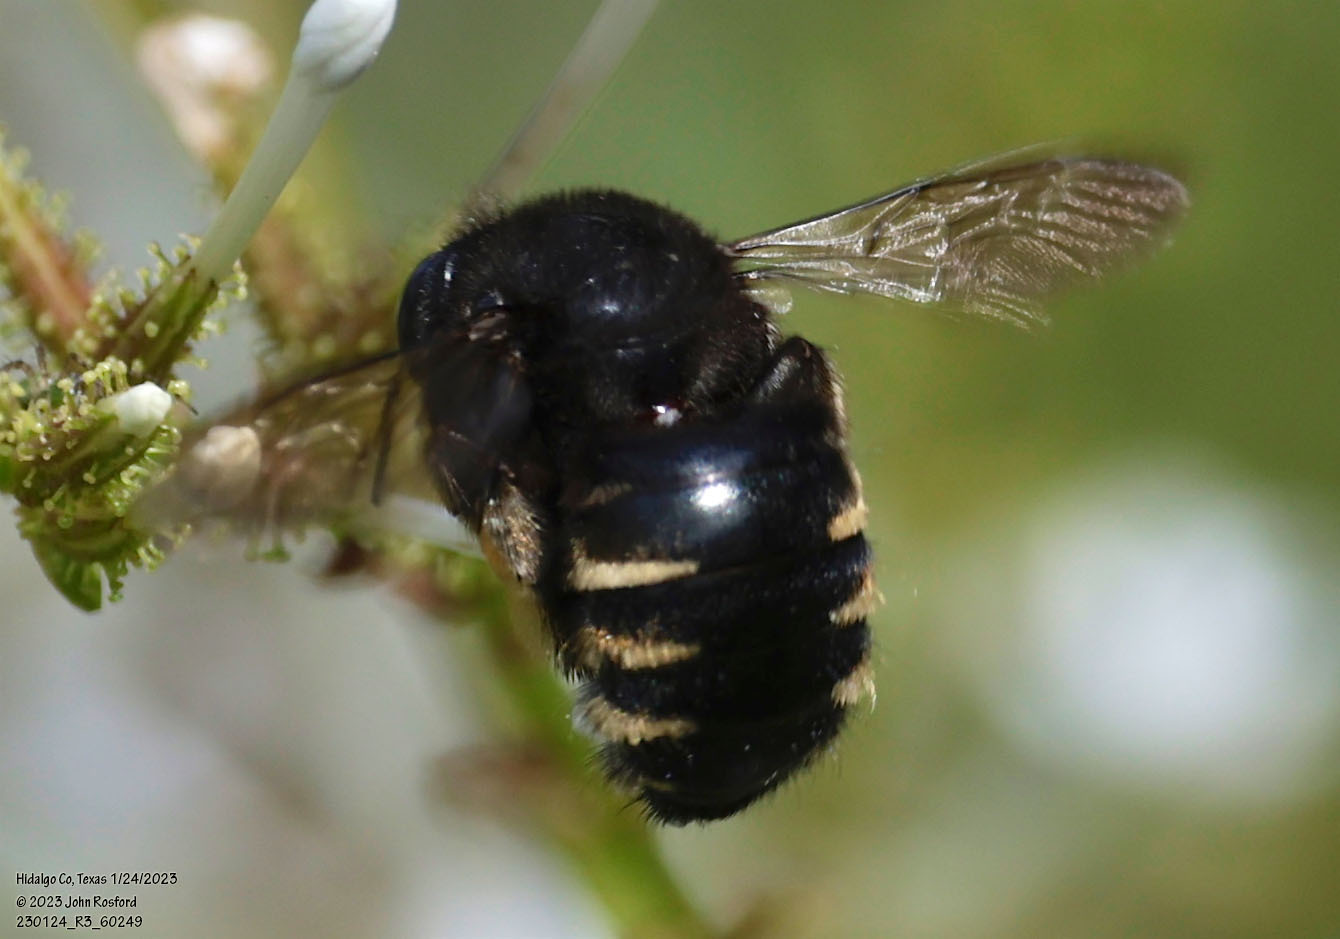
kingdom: Animalia
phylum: Arthropoda
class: Insecta
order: Hymenoptera
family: Apidae
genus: Xylocopa
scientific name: Xylocopa tabaniformis
